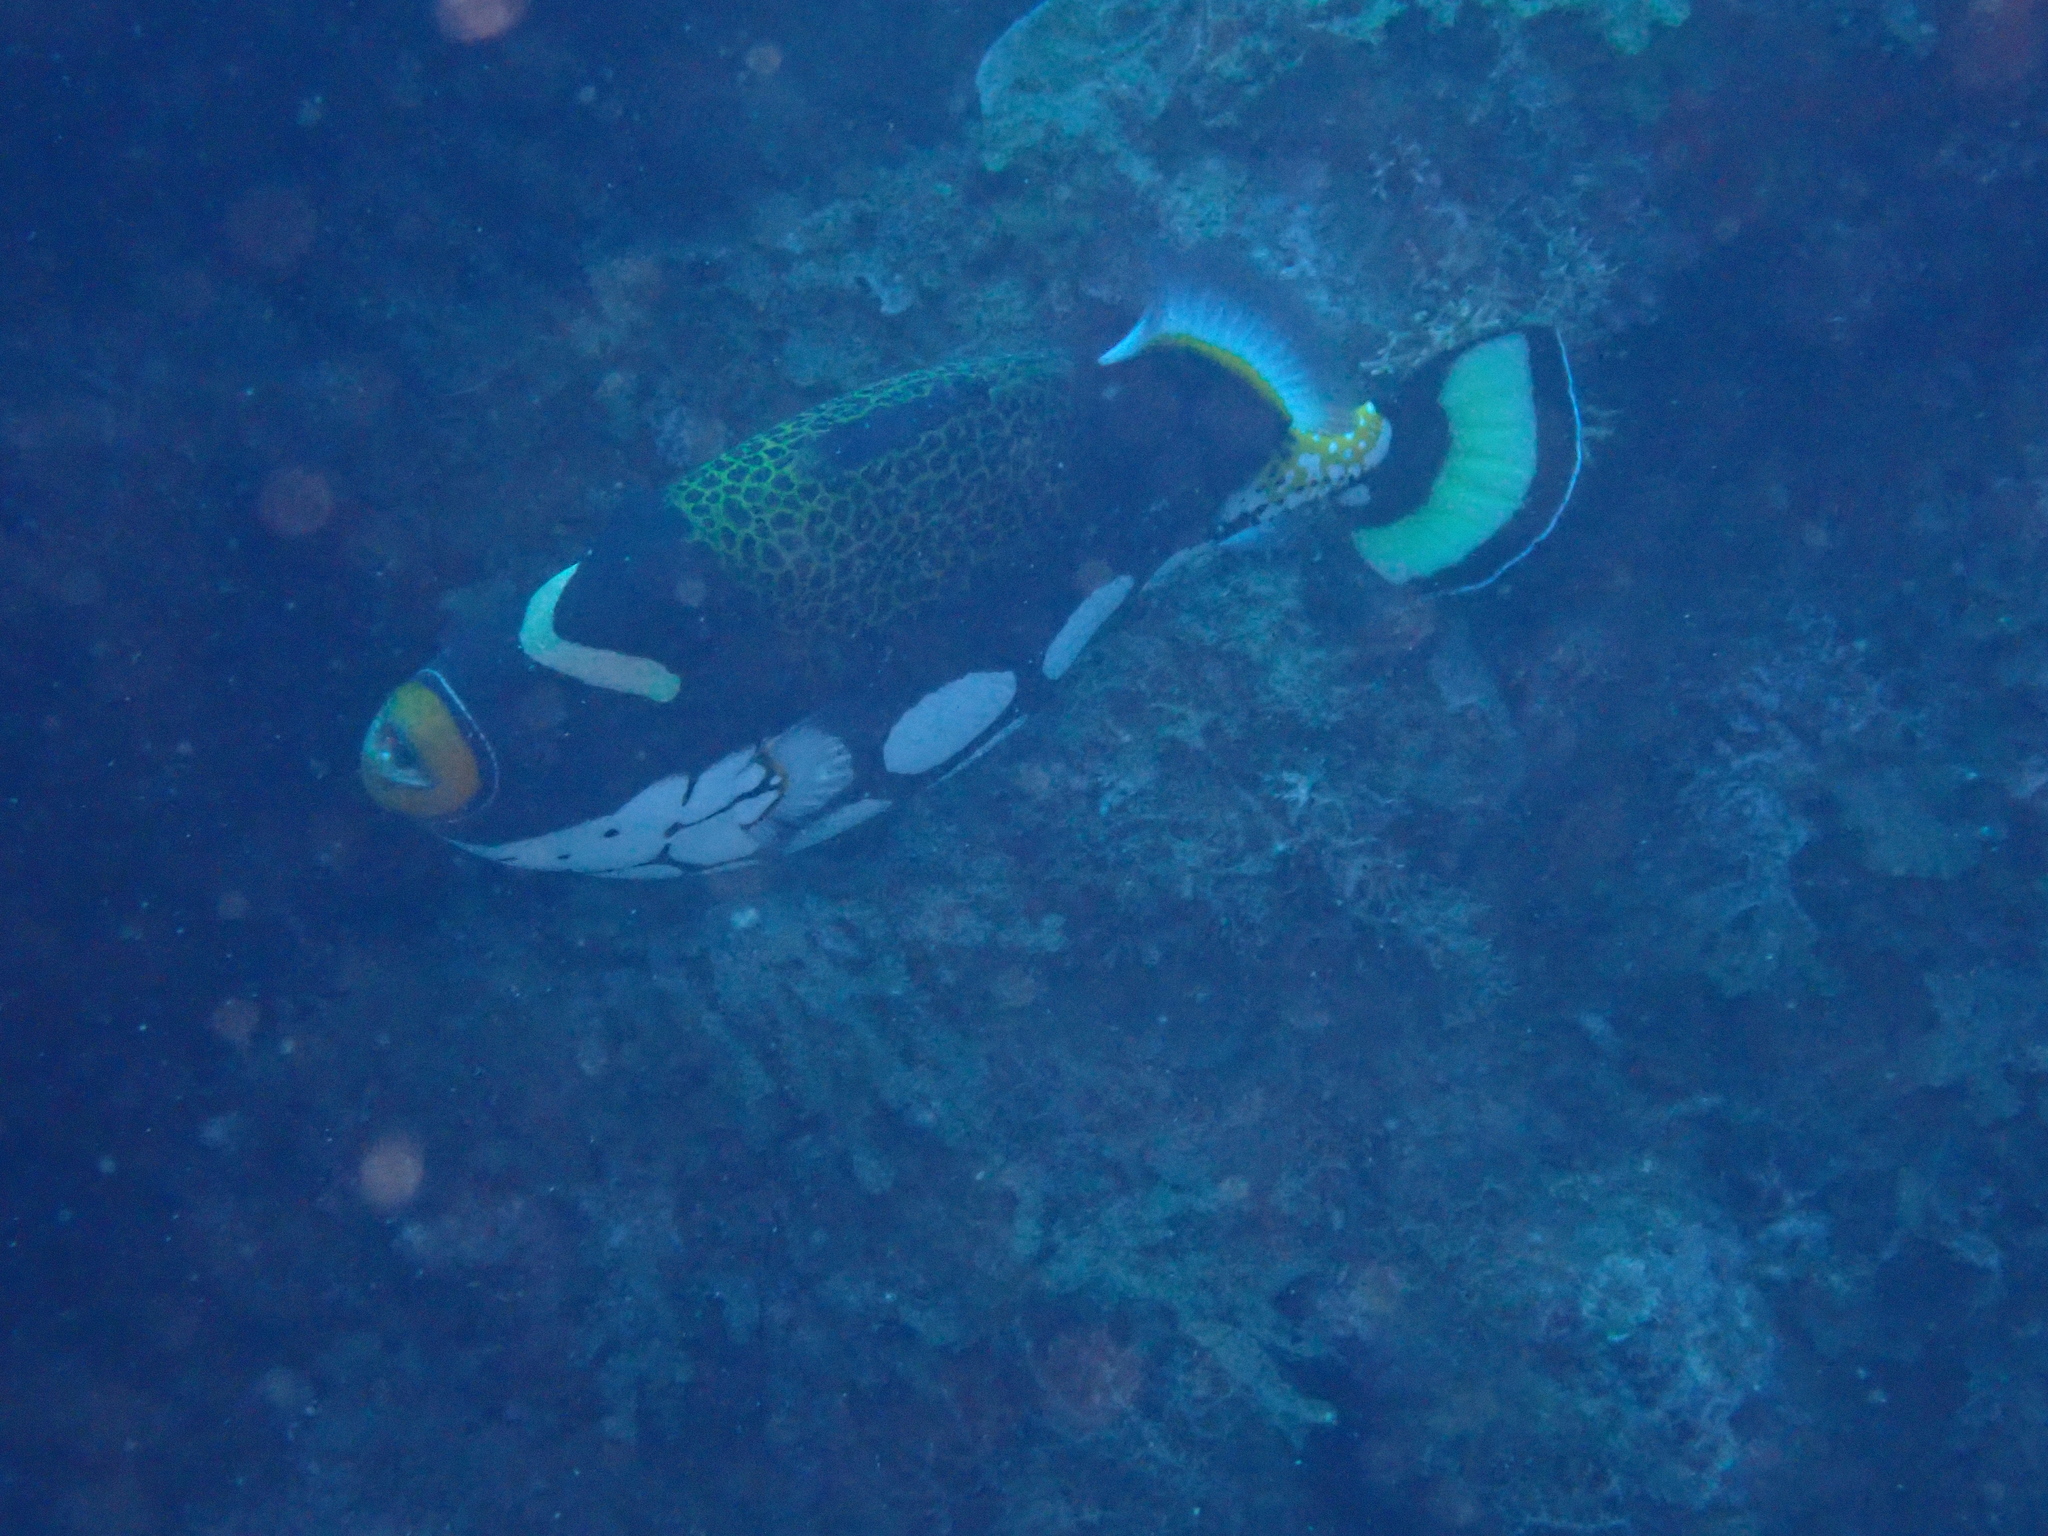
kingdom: Animalia
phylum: Chordata
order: Tetraodontiformes
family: Balistidae
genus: Balistoides
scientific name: Balistoides conspicillum
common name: Clown triggerfish
